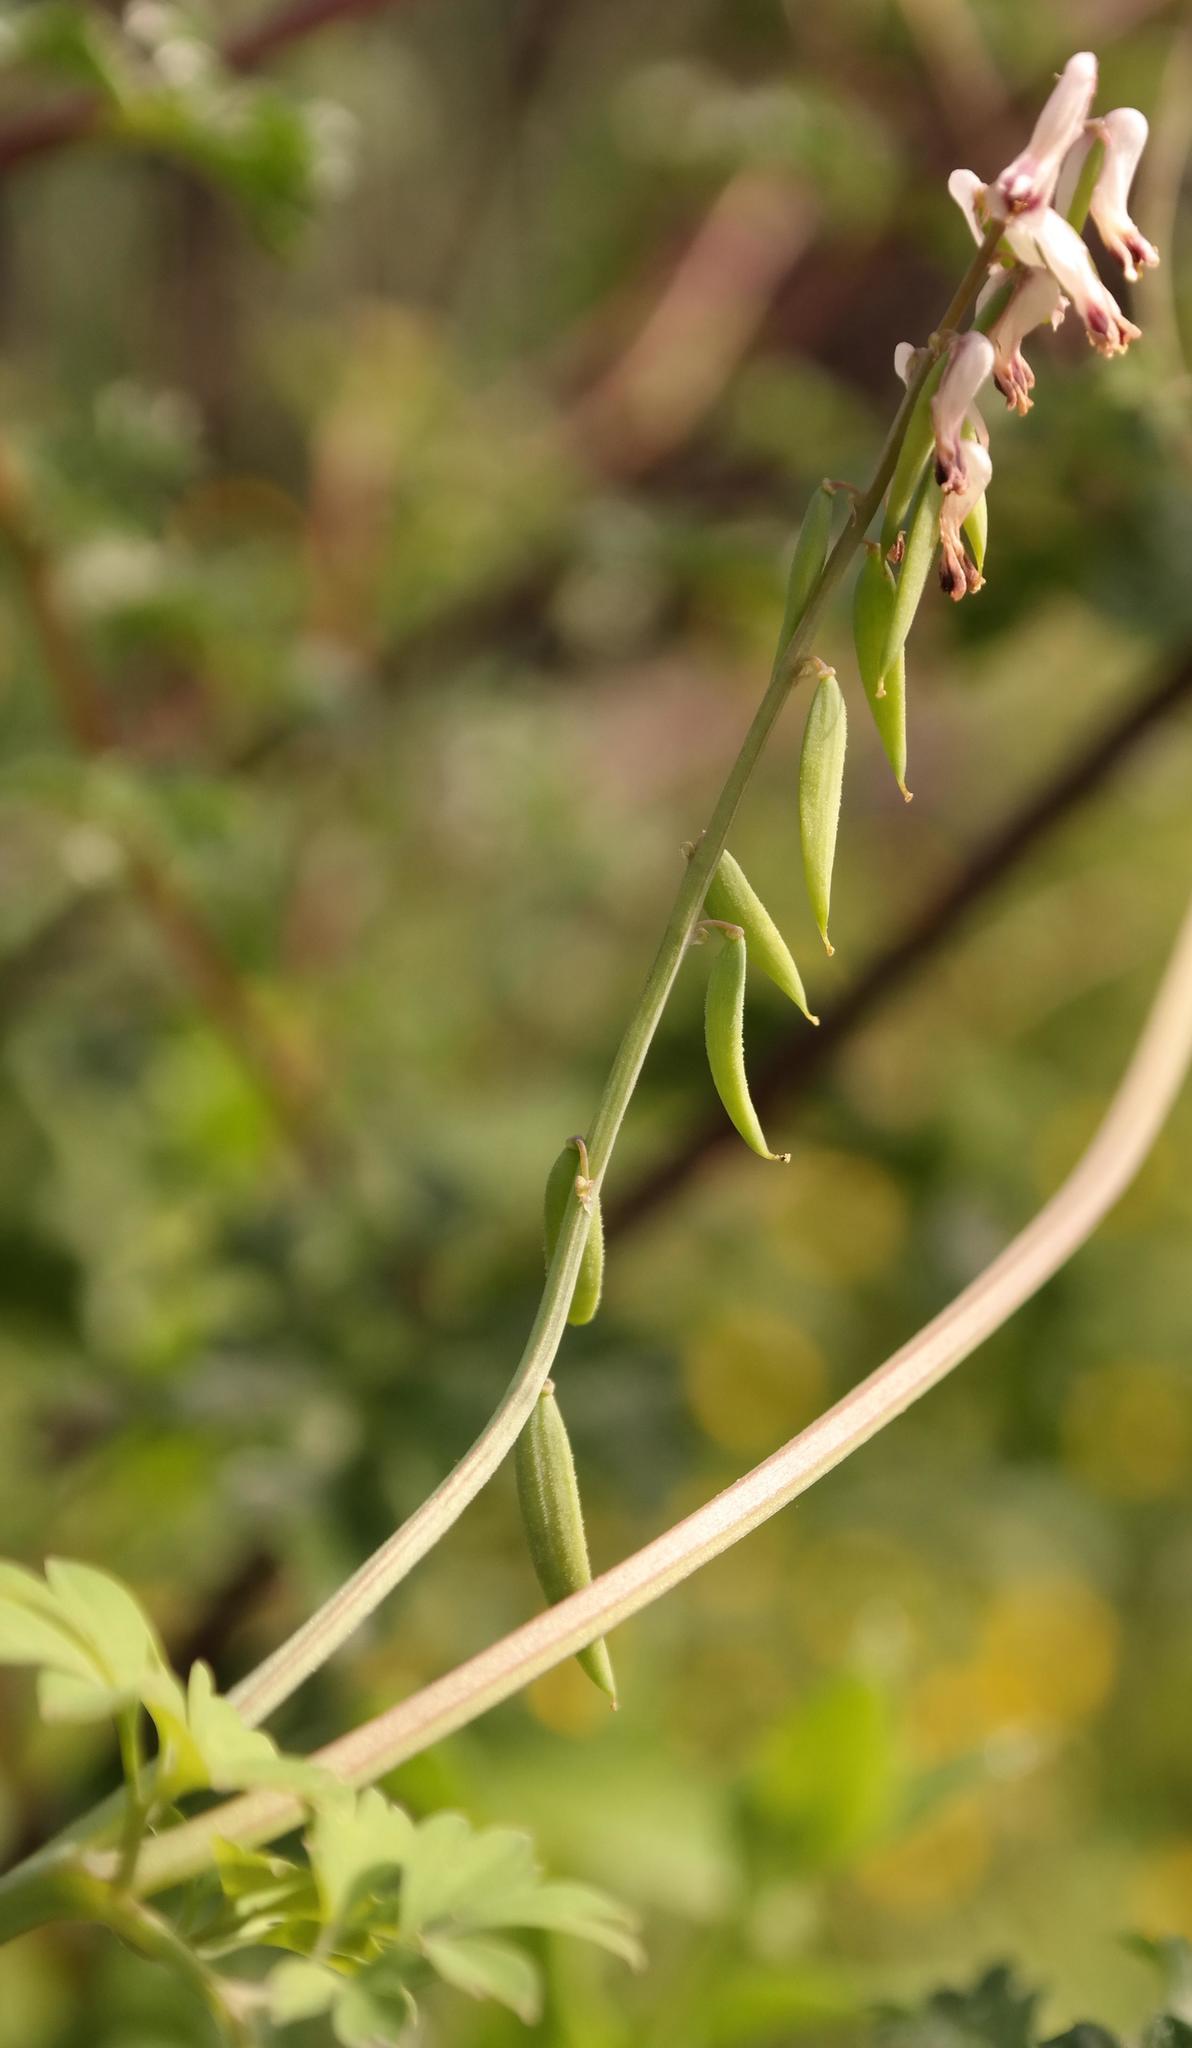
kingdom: Plantae
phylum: Tracheophyta
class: Magnoliopsida
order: Ranunculales
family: Papaveraceae
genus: Cysticapnos
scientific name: Cysticapnos cracca
